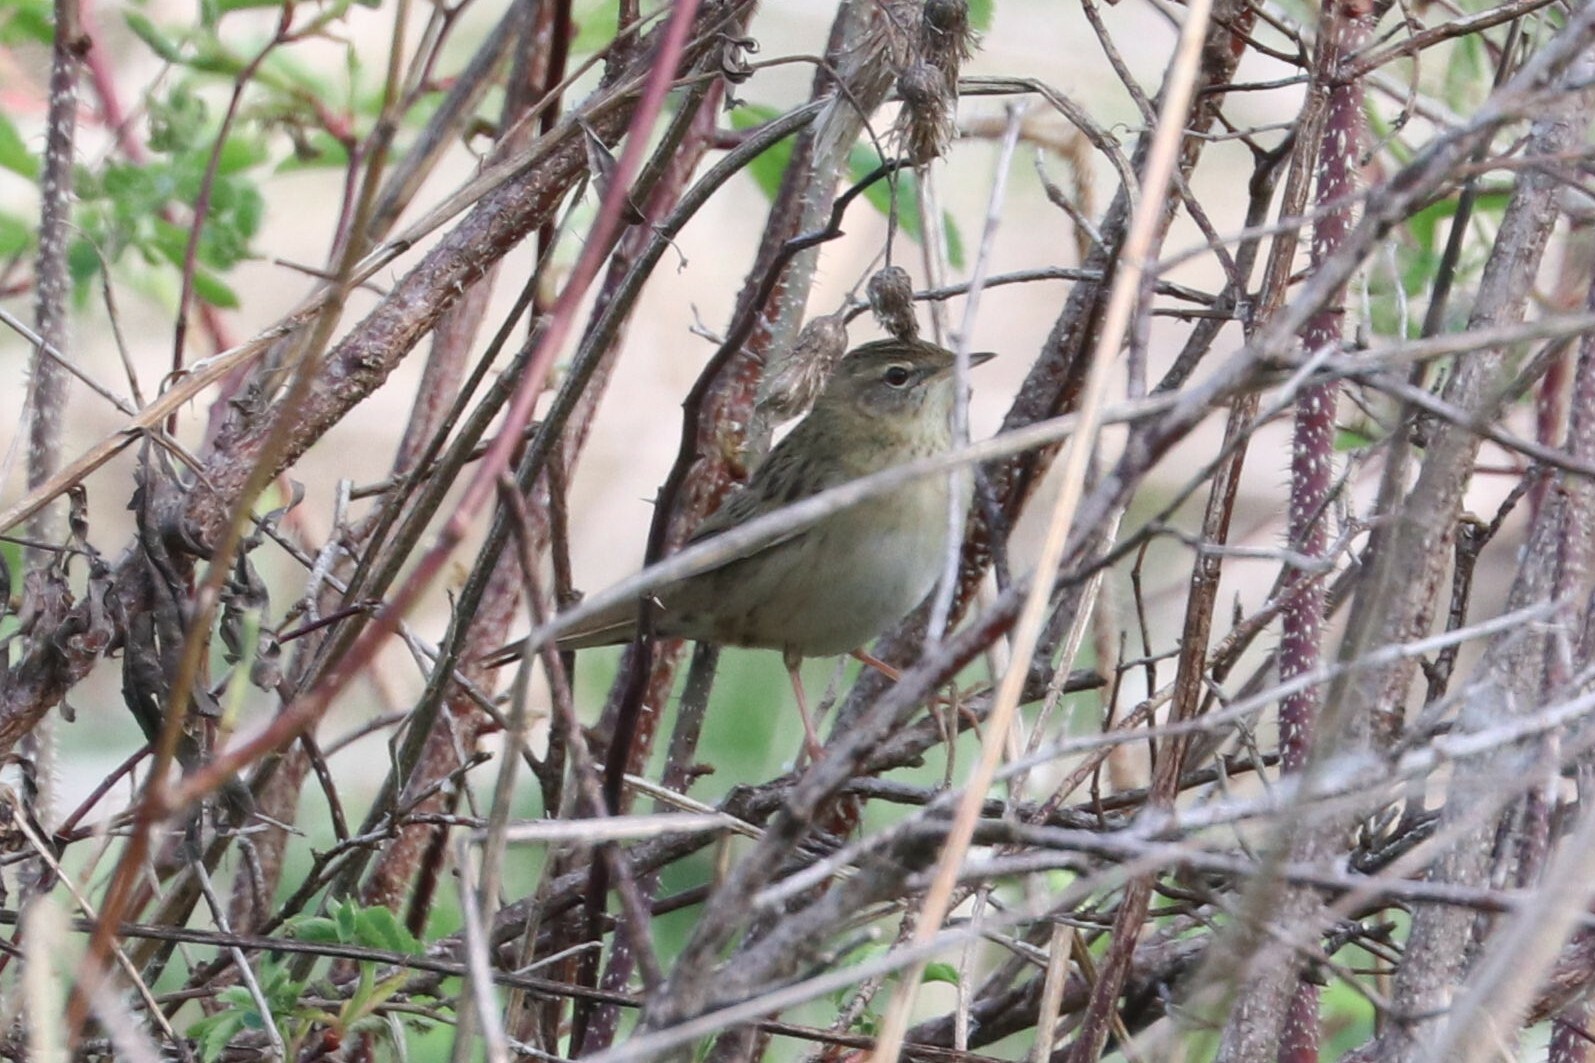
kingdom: Animalia
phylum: Chordata
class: Aves
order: Passeriformes
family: Locustellidae
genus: Locustella
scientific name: Locustella naevia
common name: Common grasshopper warbler
